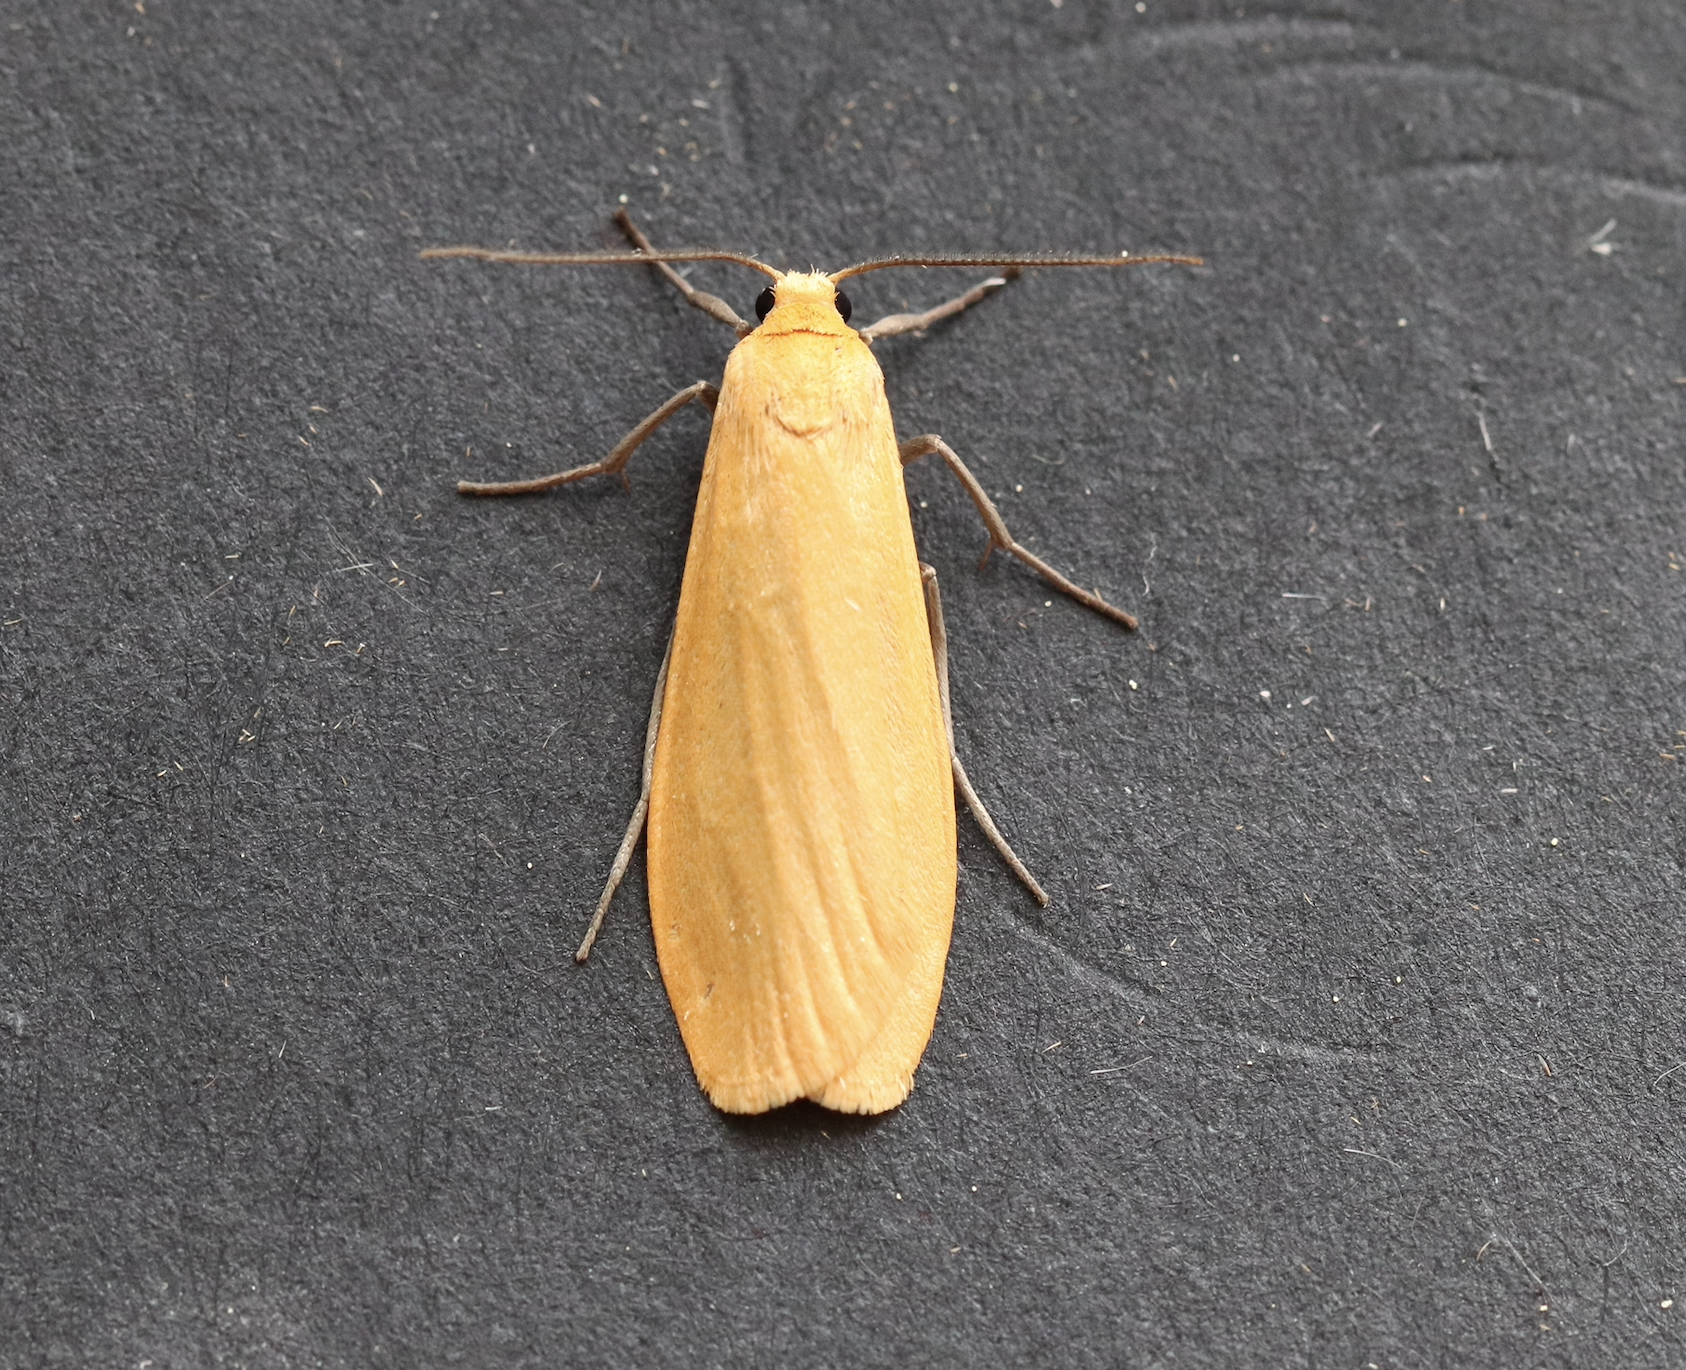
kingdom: Animalia
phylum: Arthropoda
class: Insecta
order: Lepidoptera
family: Erebidae
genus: Wittia
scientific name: Wittia sororcula
